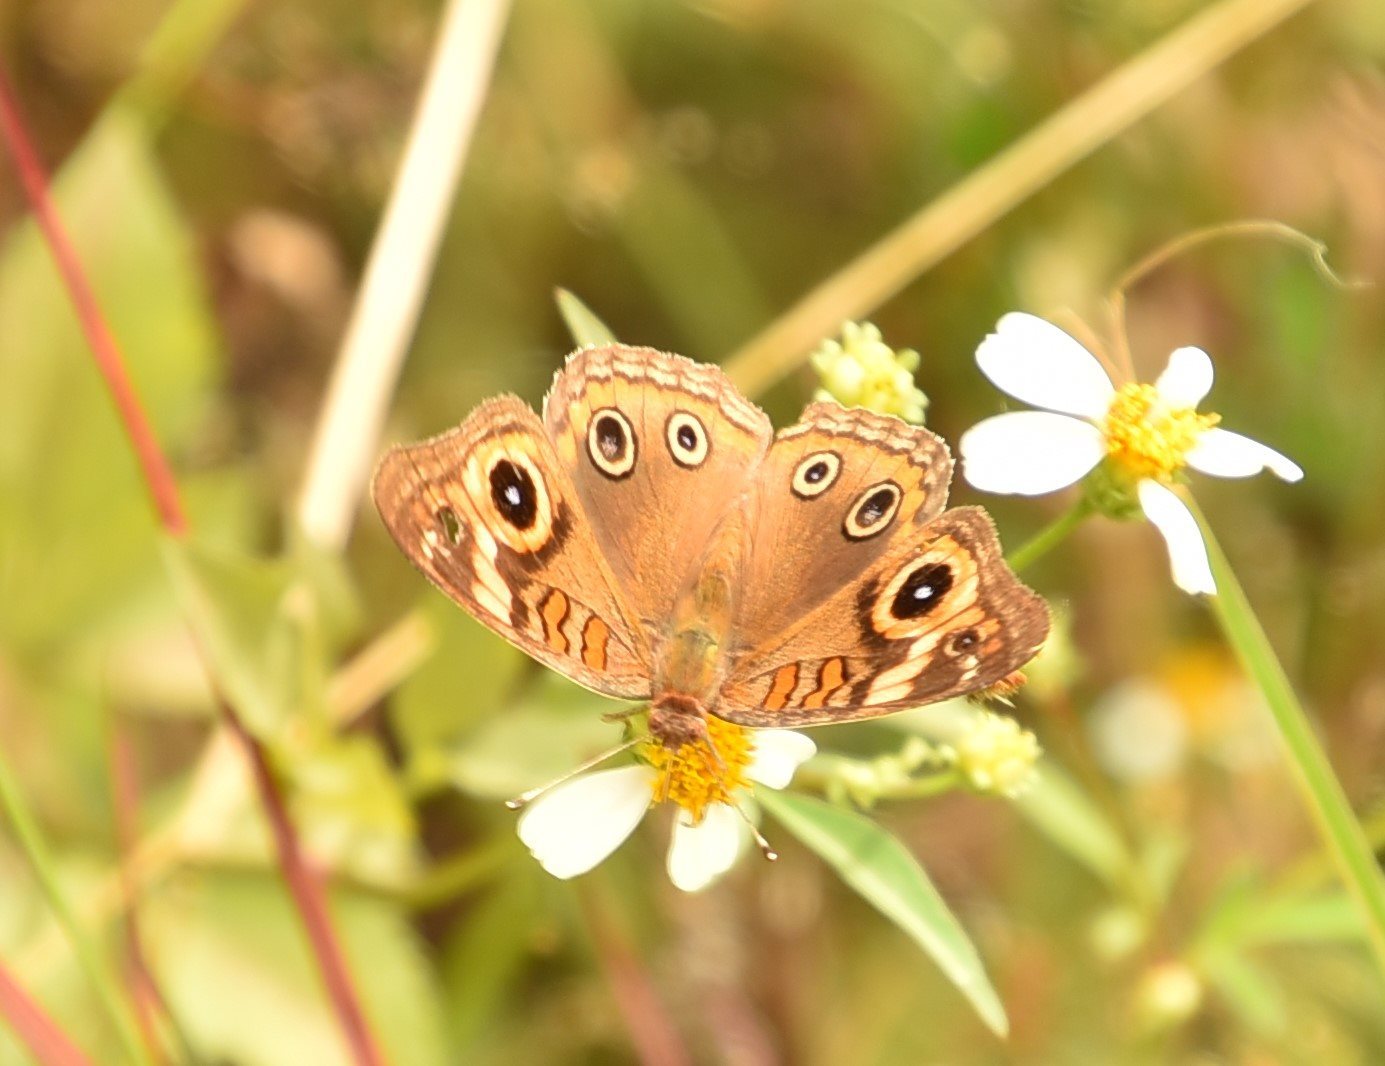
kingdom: Animalia
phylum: Arthropoda
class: Insecta
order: Lepidoptera
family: Nymphalidae
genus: Junonia
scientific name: Junonia neildi
